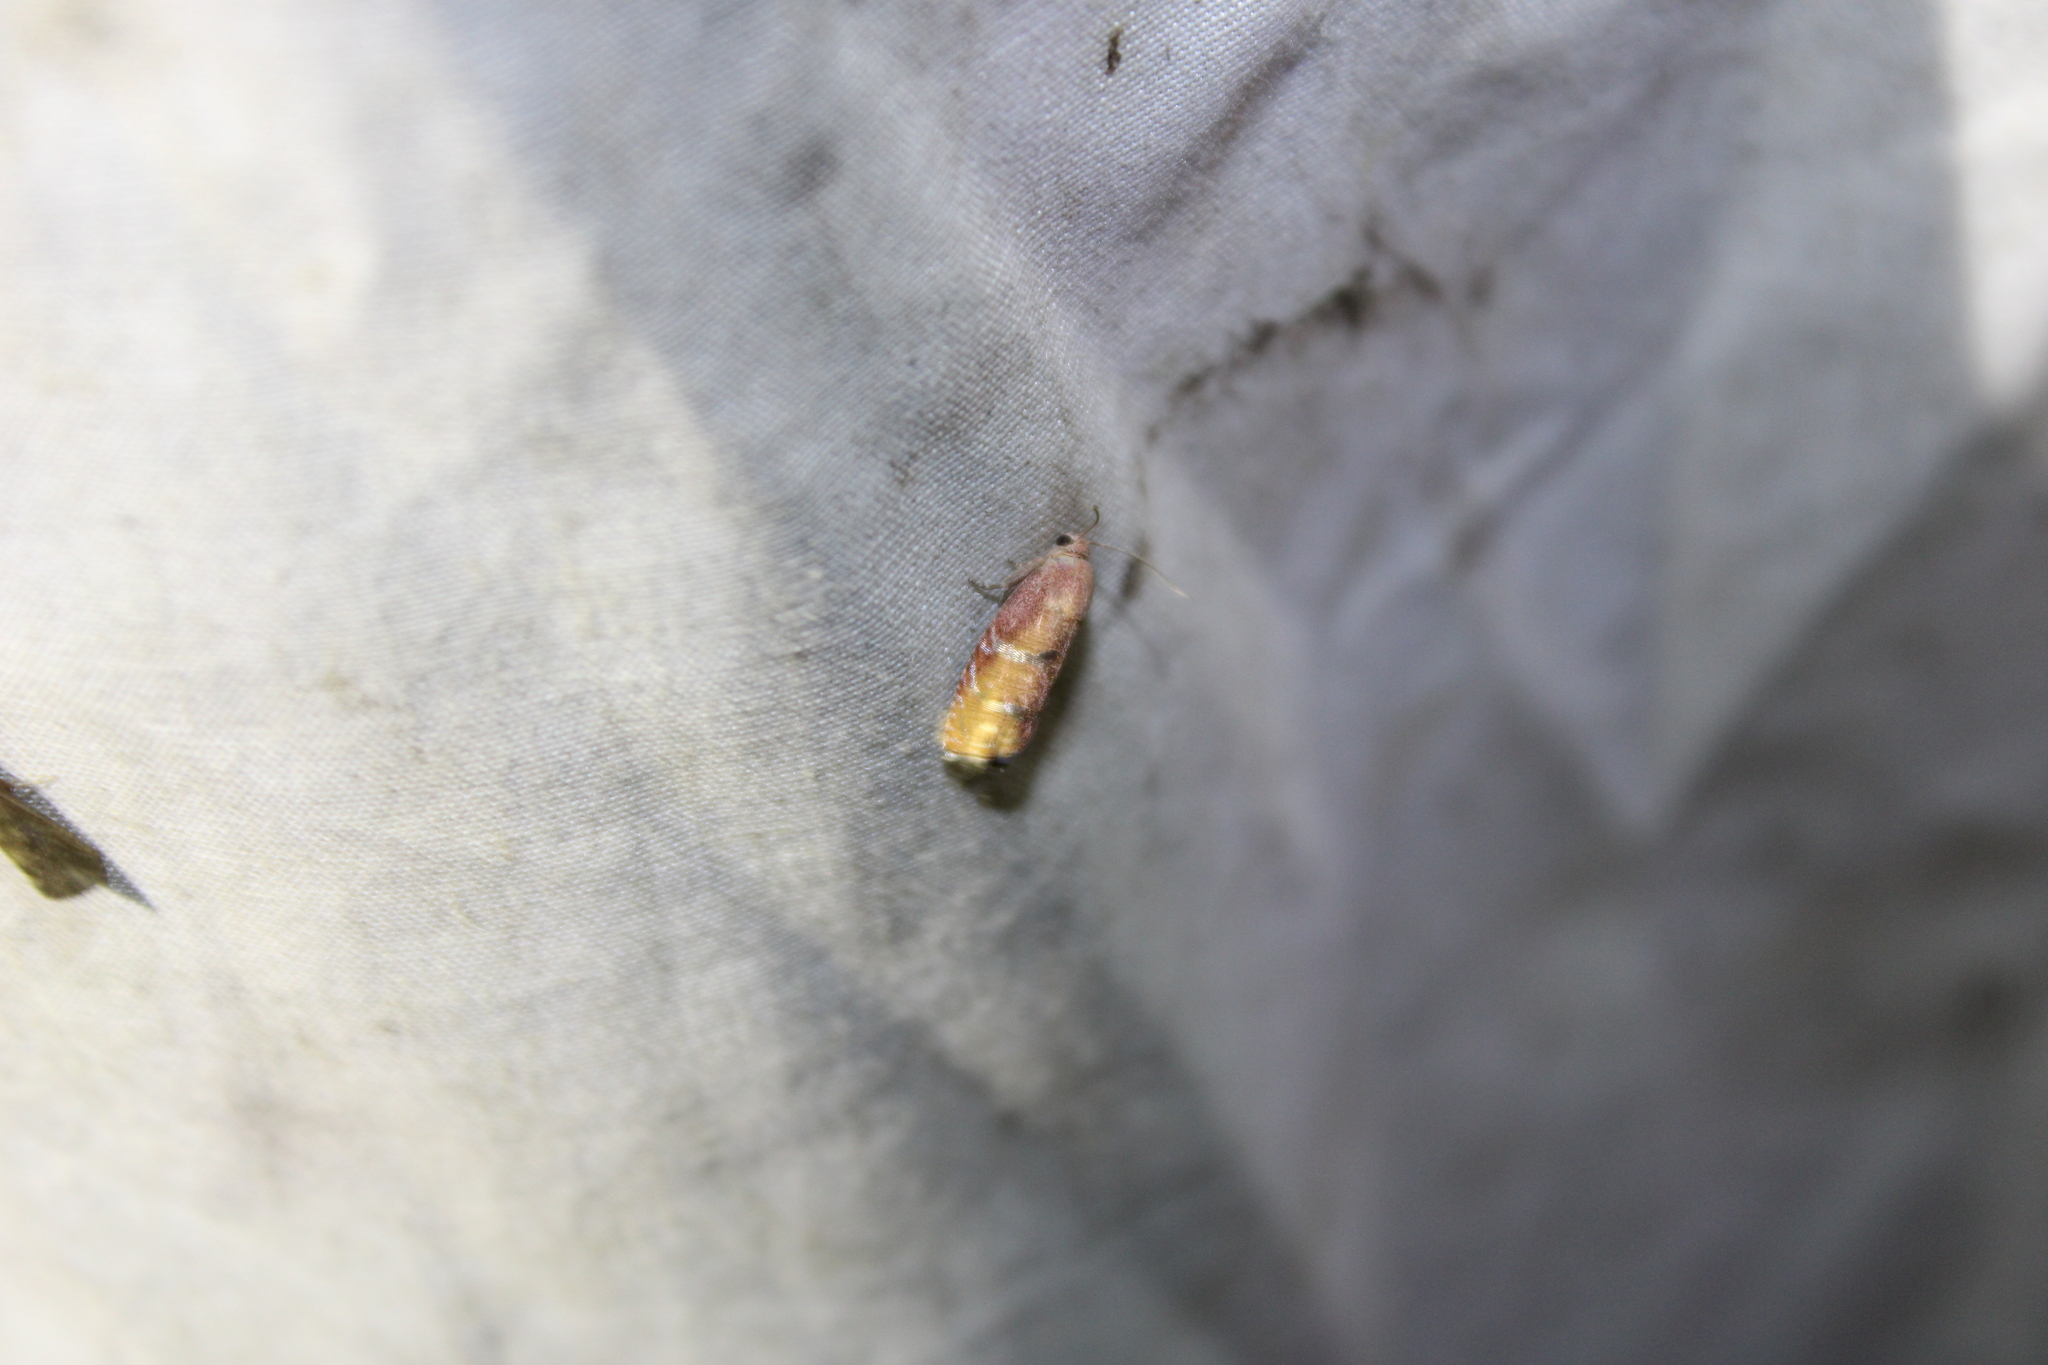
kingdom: Animalia
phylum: Arthropoda
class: Insecta
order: Lepidoptera
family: Tortricidae
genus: Cydia
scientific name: Cydia latiferreana
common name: Filbertworm moth
